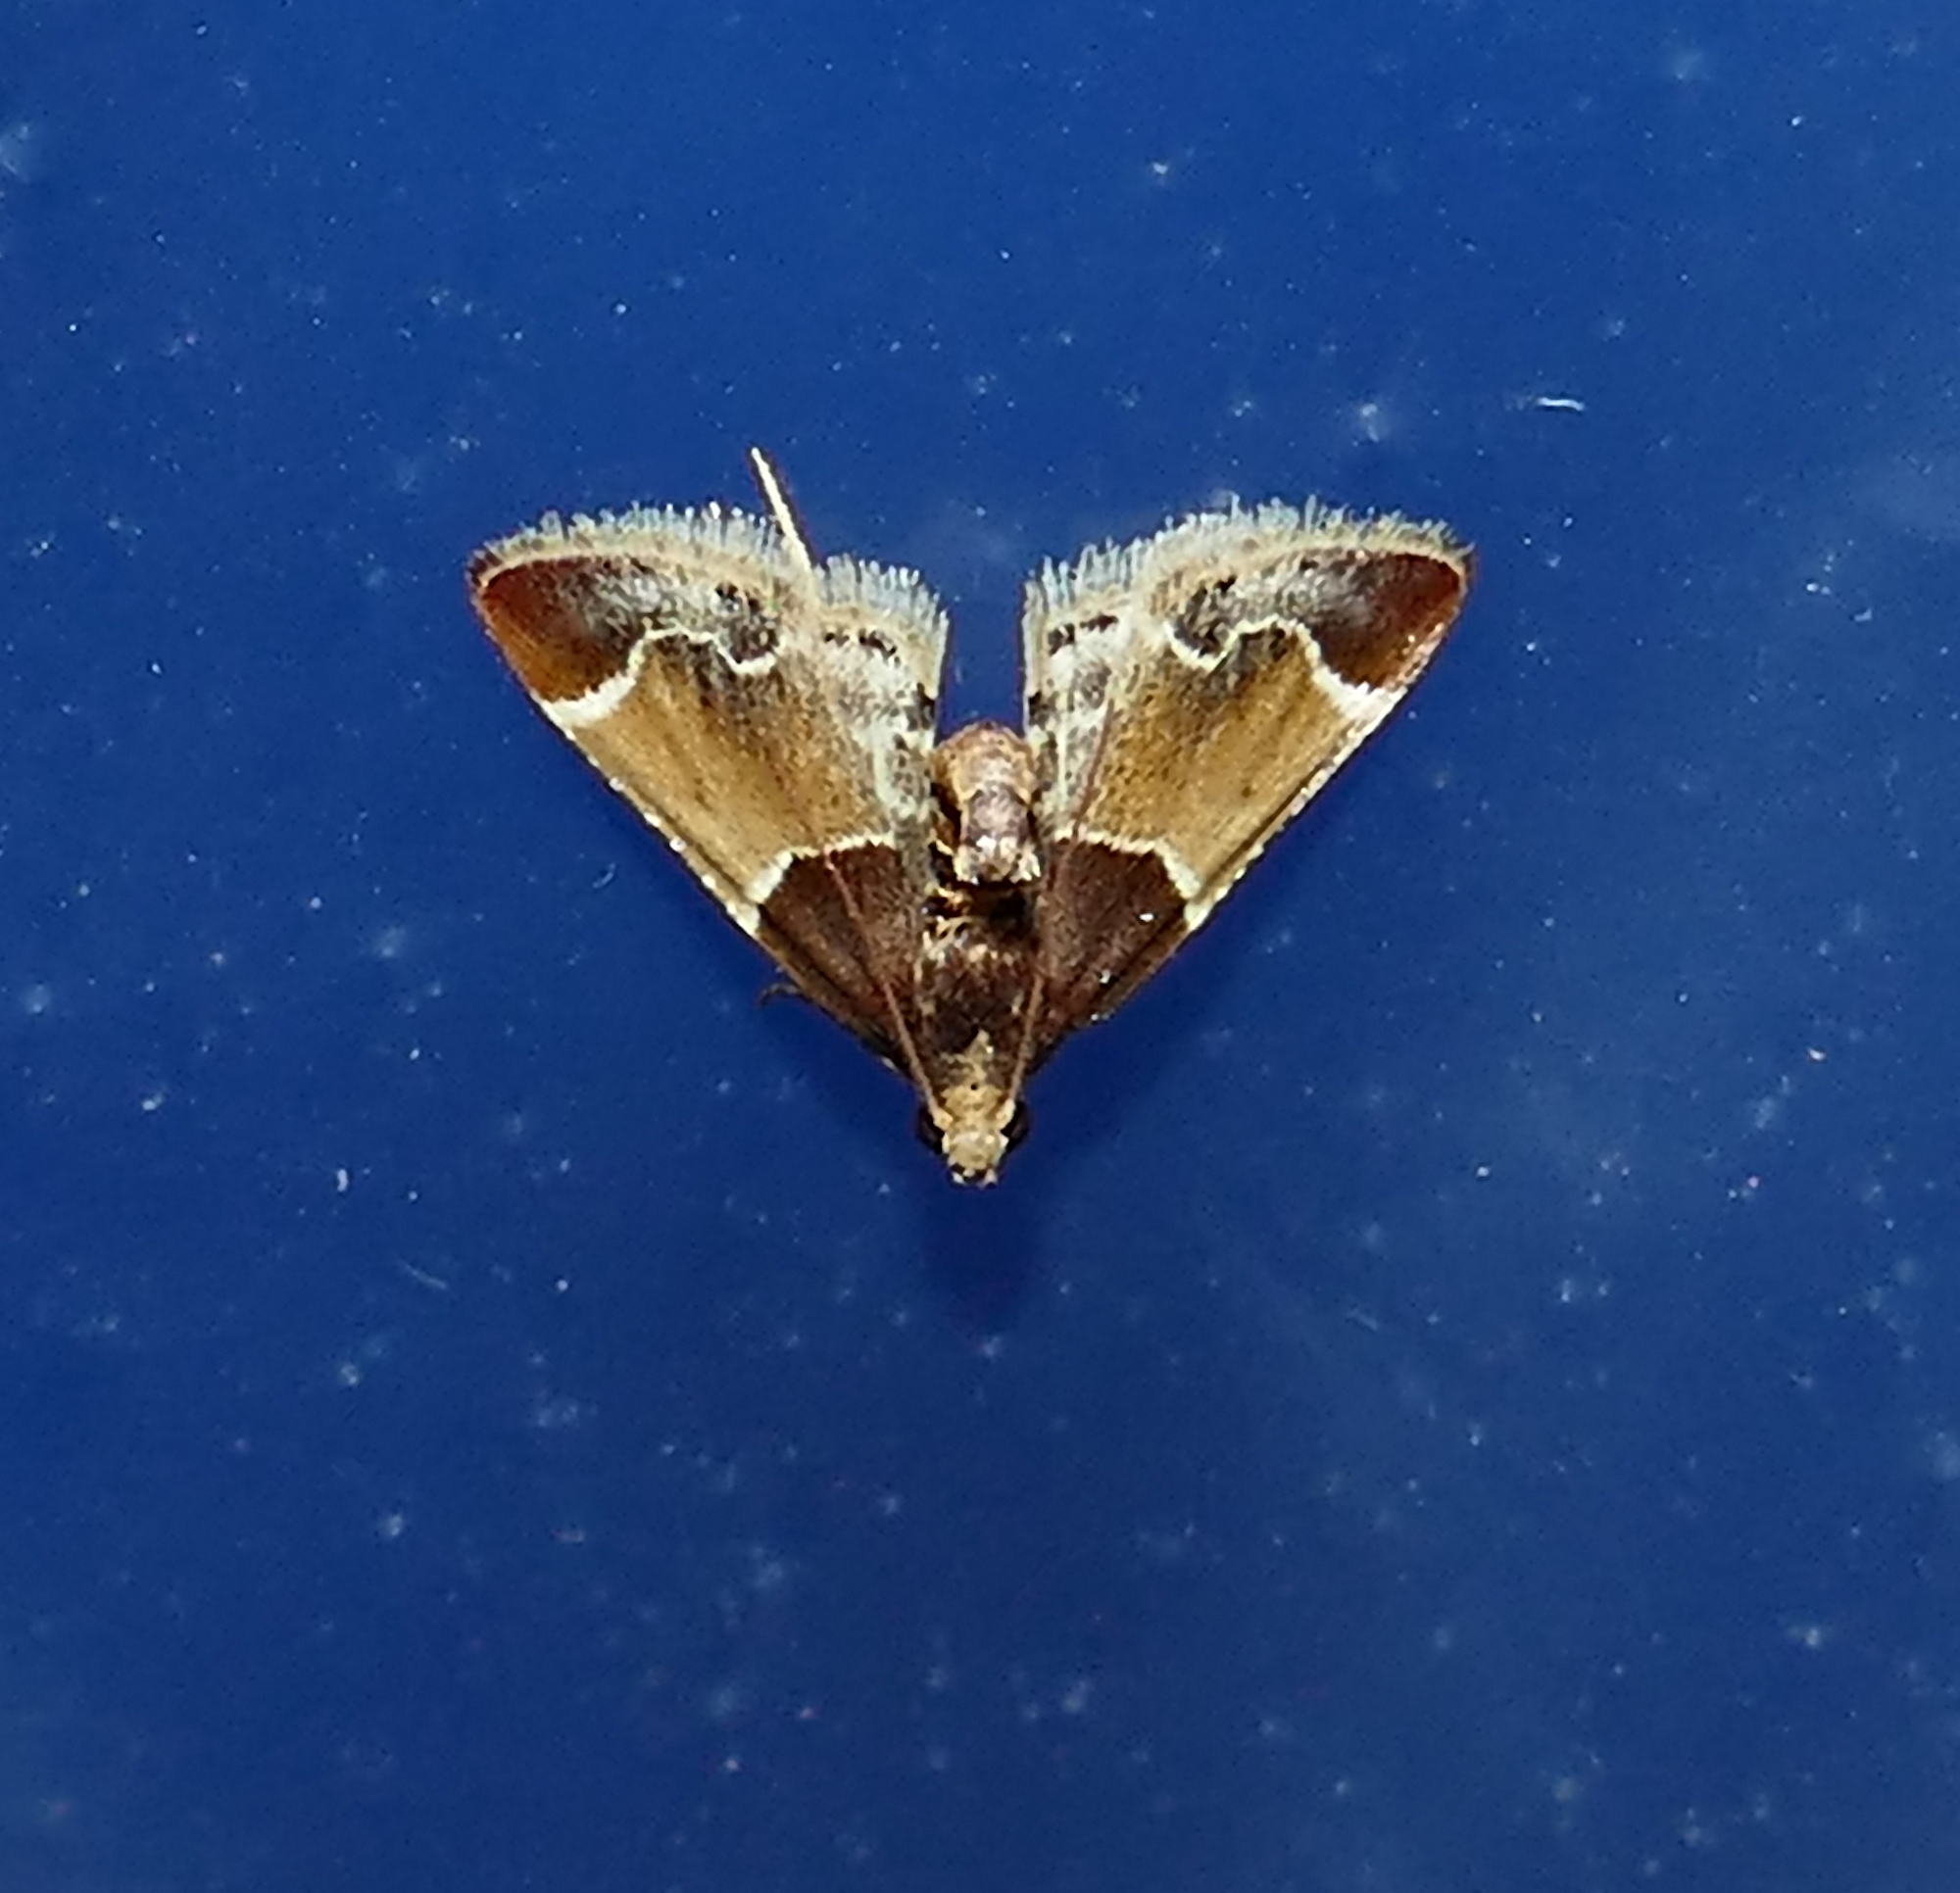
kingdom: Animalia
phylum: Arthropoda
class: Insecta
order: Lepidoptera
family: Pyralidae
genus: Pyralis
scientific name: Pyralis farinalis
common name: Meal moth
